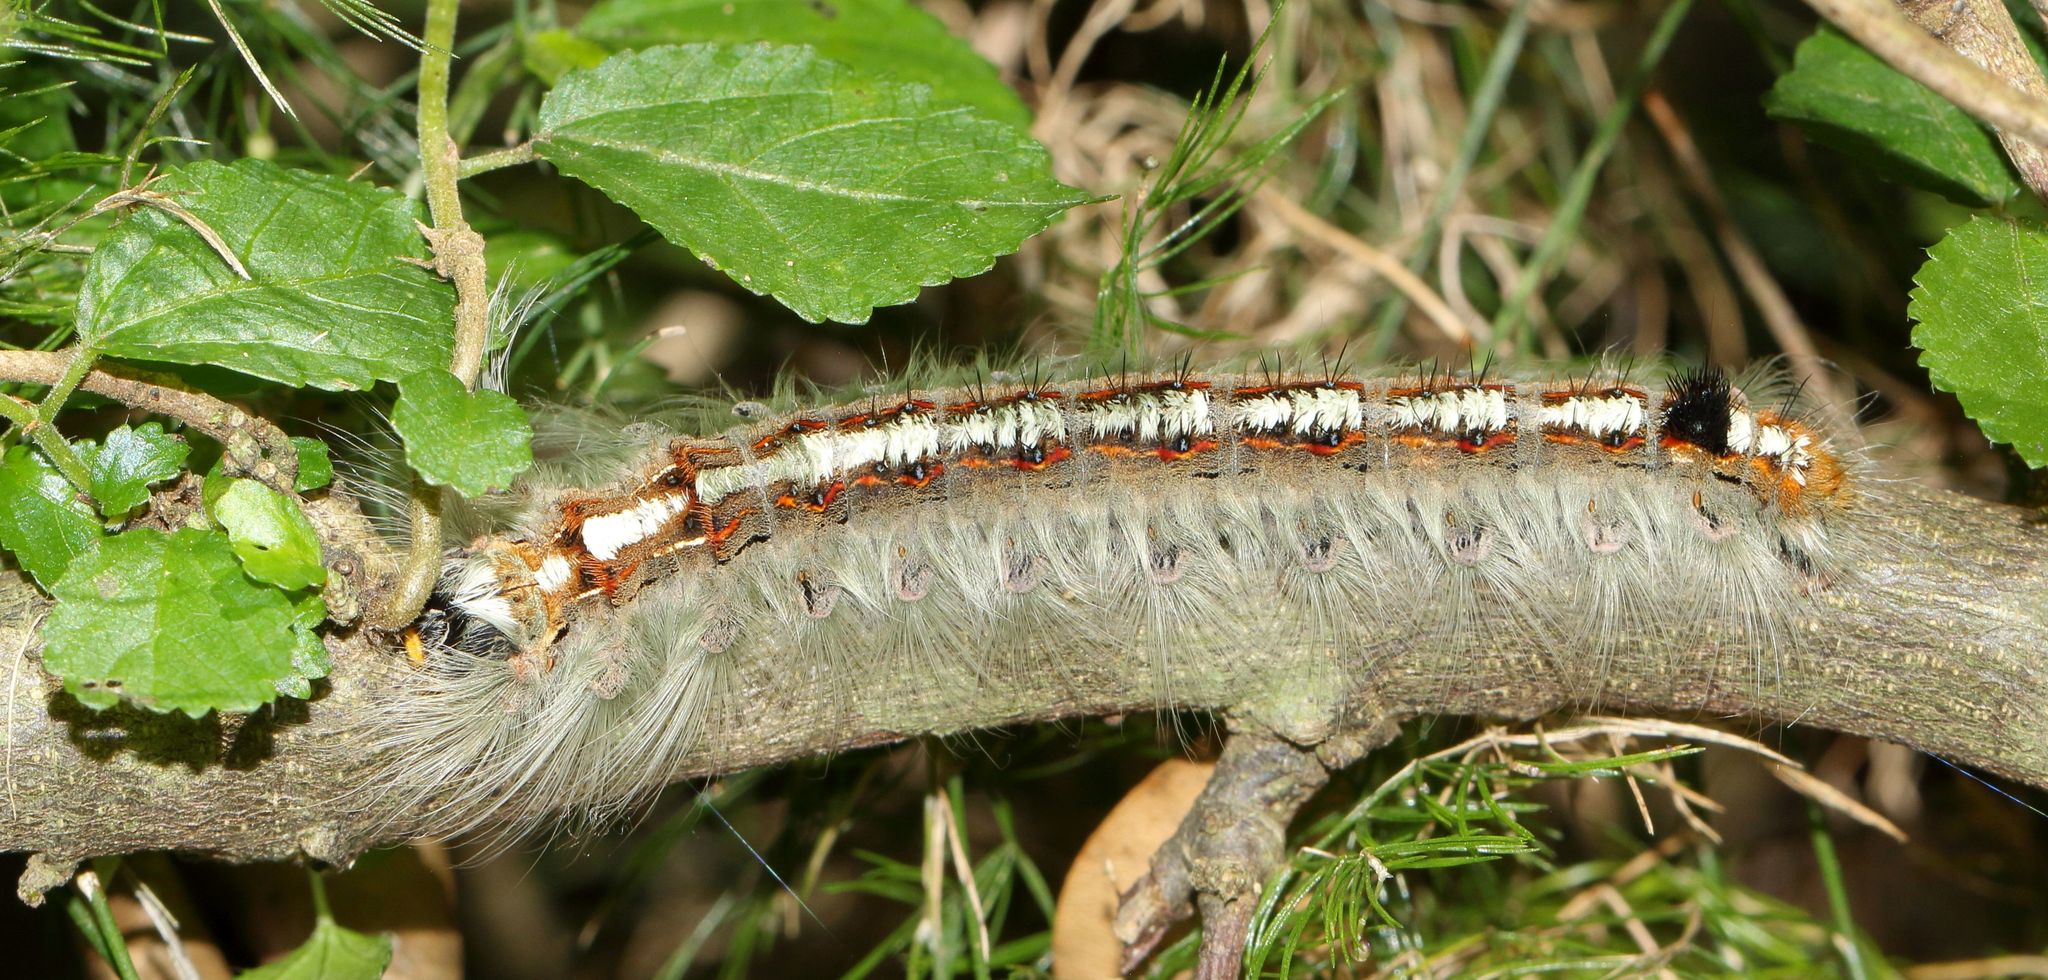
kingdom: Animalia
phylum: Arthropoda
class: Insecta
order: Lepidoptera
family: Lasiocampidae
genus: Eutricha
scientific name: Eutricha obscura
